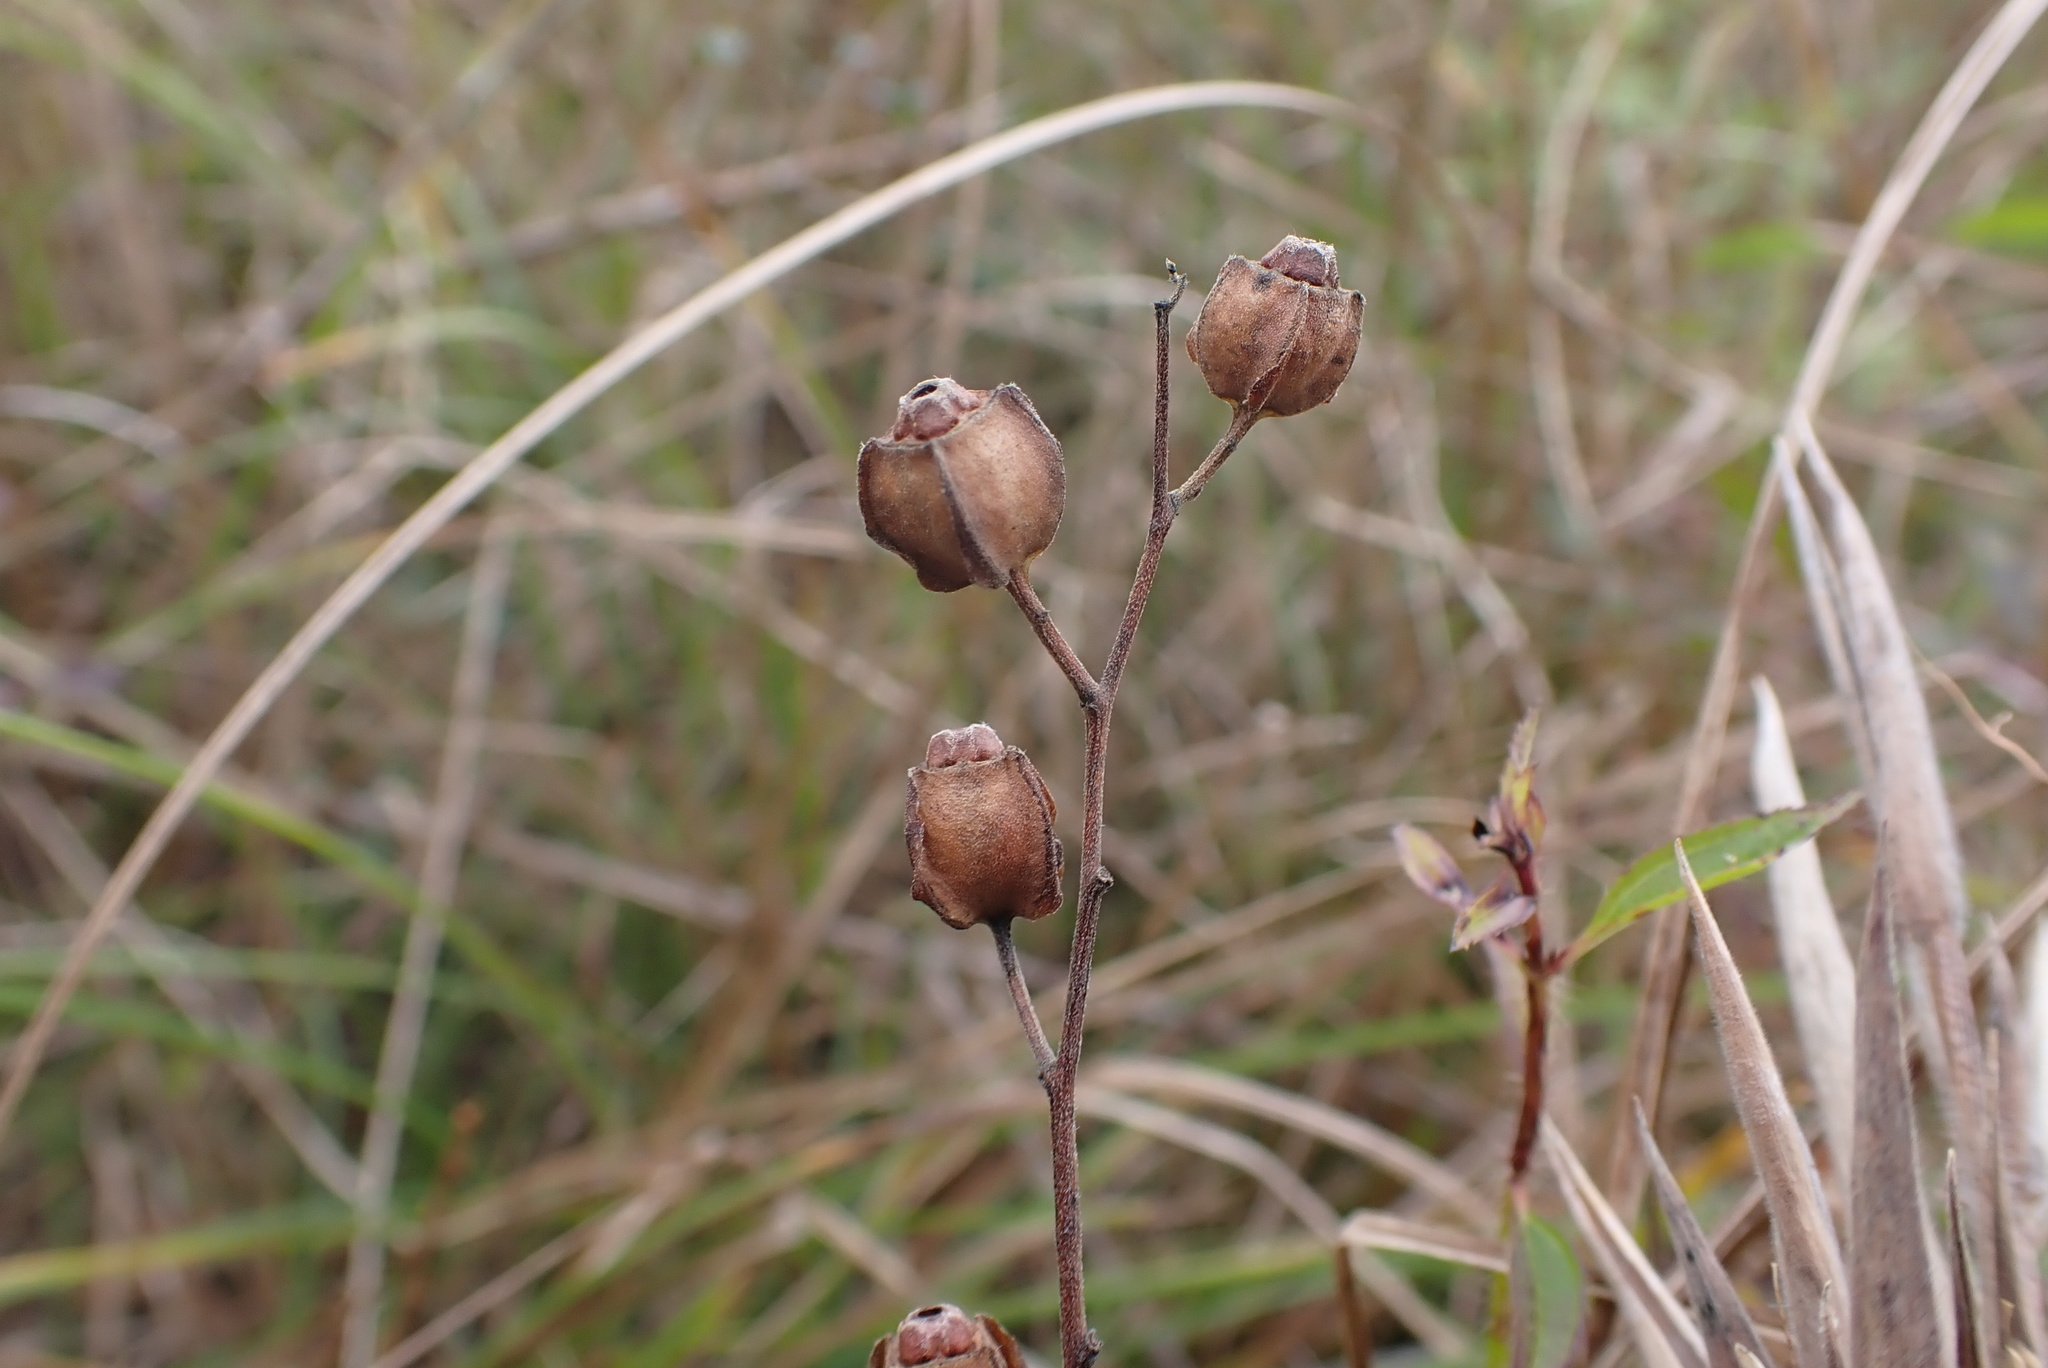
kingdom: Plantae
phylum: Tracheophyta
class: Magnoliopsida
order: Myrtales
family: Onagraceae
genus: Ludwigia
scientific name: Ludwigia virgata
